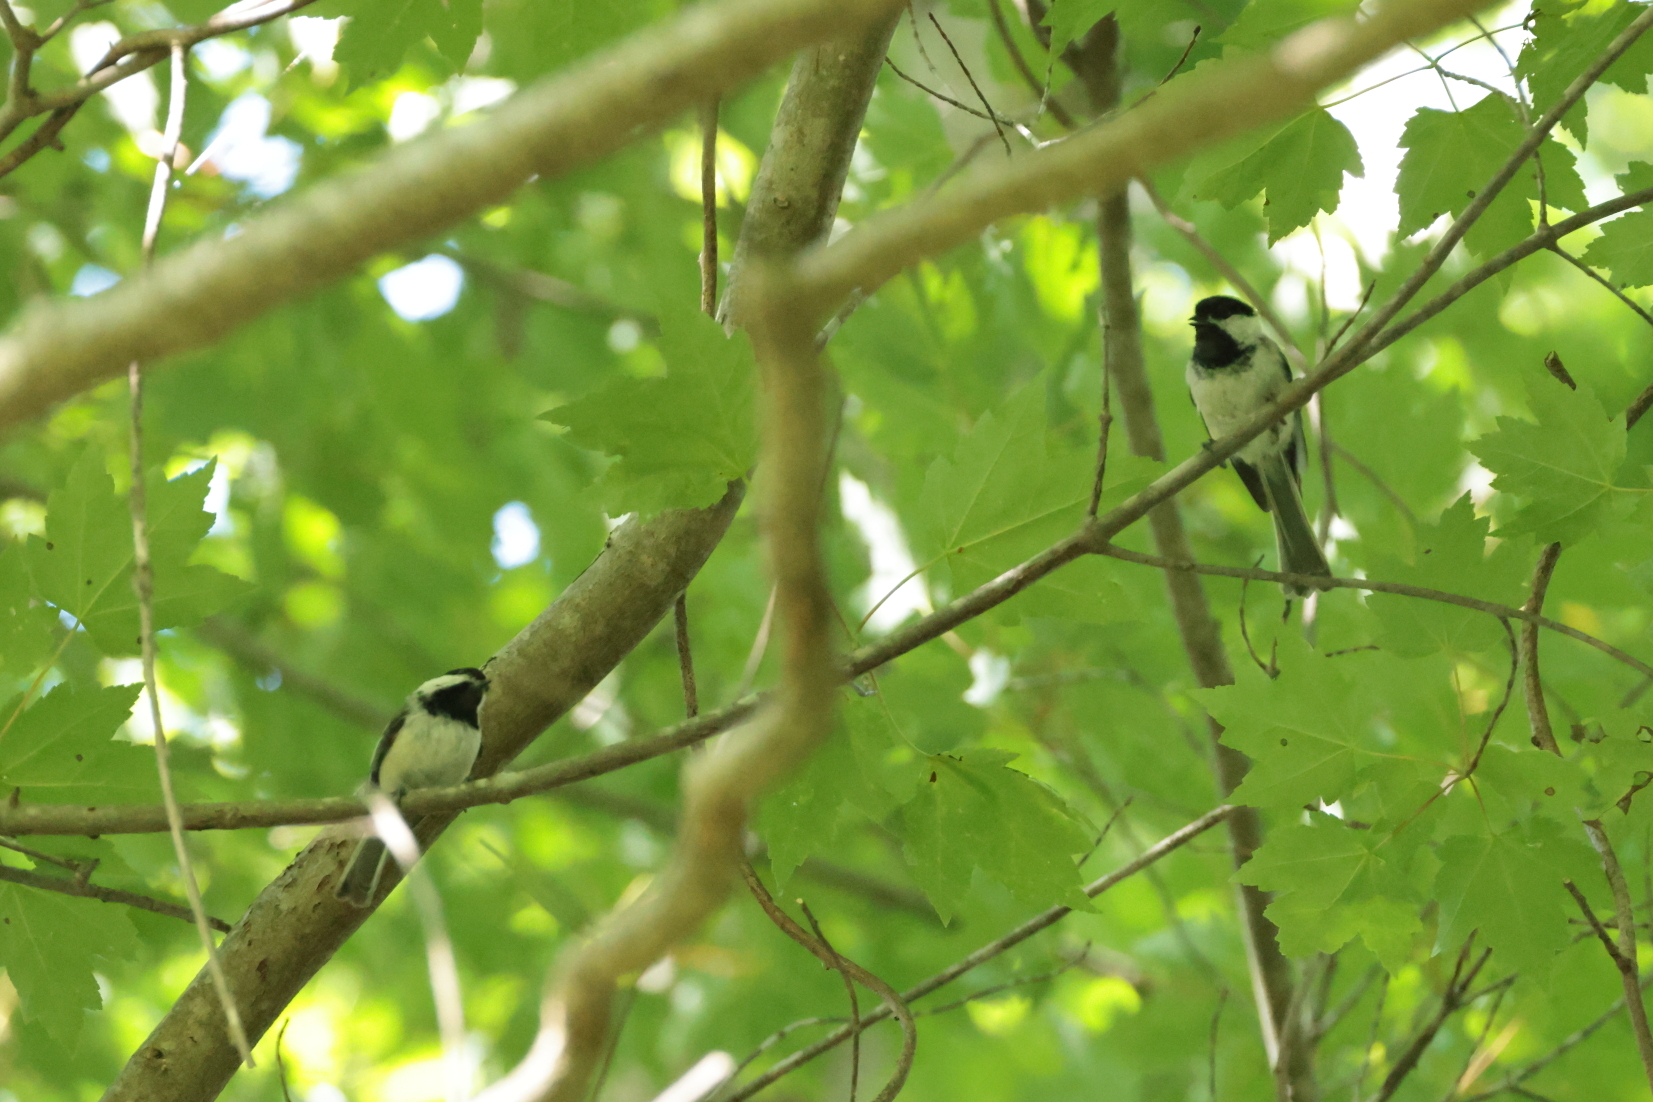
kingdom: Animalia
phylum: Chordata
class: Aves
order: Passeriformes
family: Paridae
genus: Poecile
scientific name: Poecile atricapillus
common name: Black-capped chickadee
